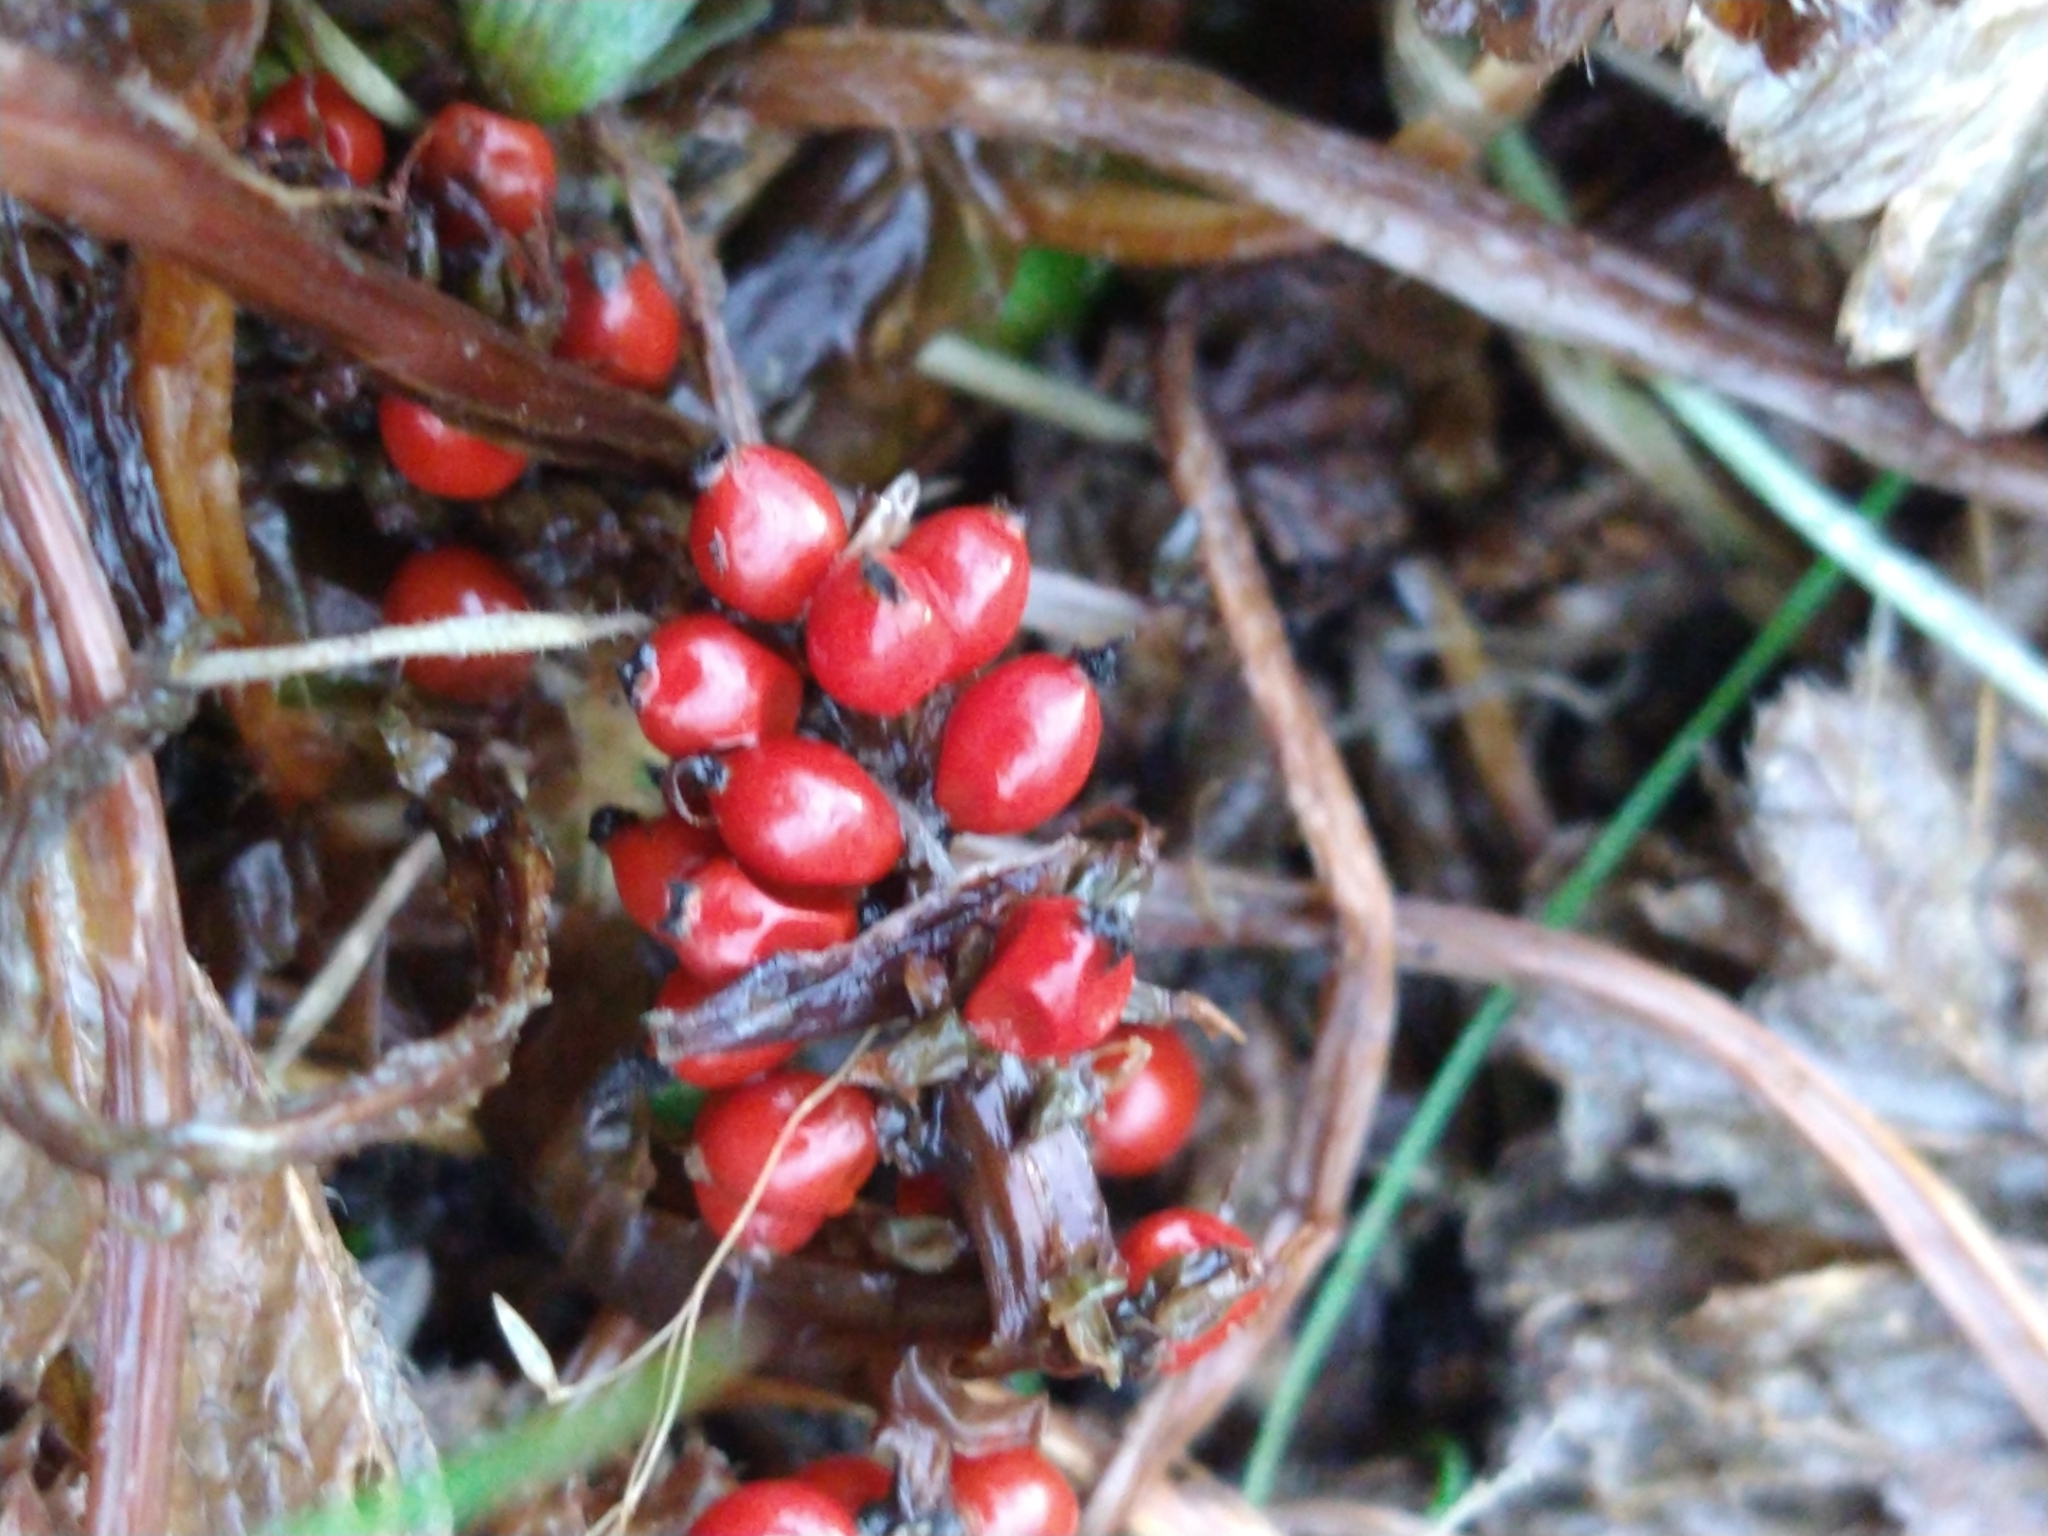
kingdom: Plantae
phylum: Tracheophyta
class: Magnoliopsida
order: Gunnerales
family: Gunneraceae
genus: Gunnera
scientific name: Gunnera magellanica
